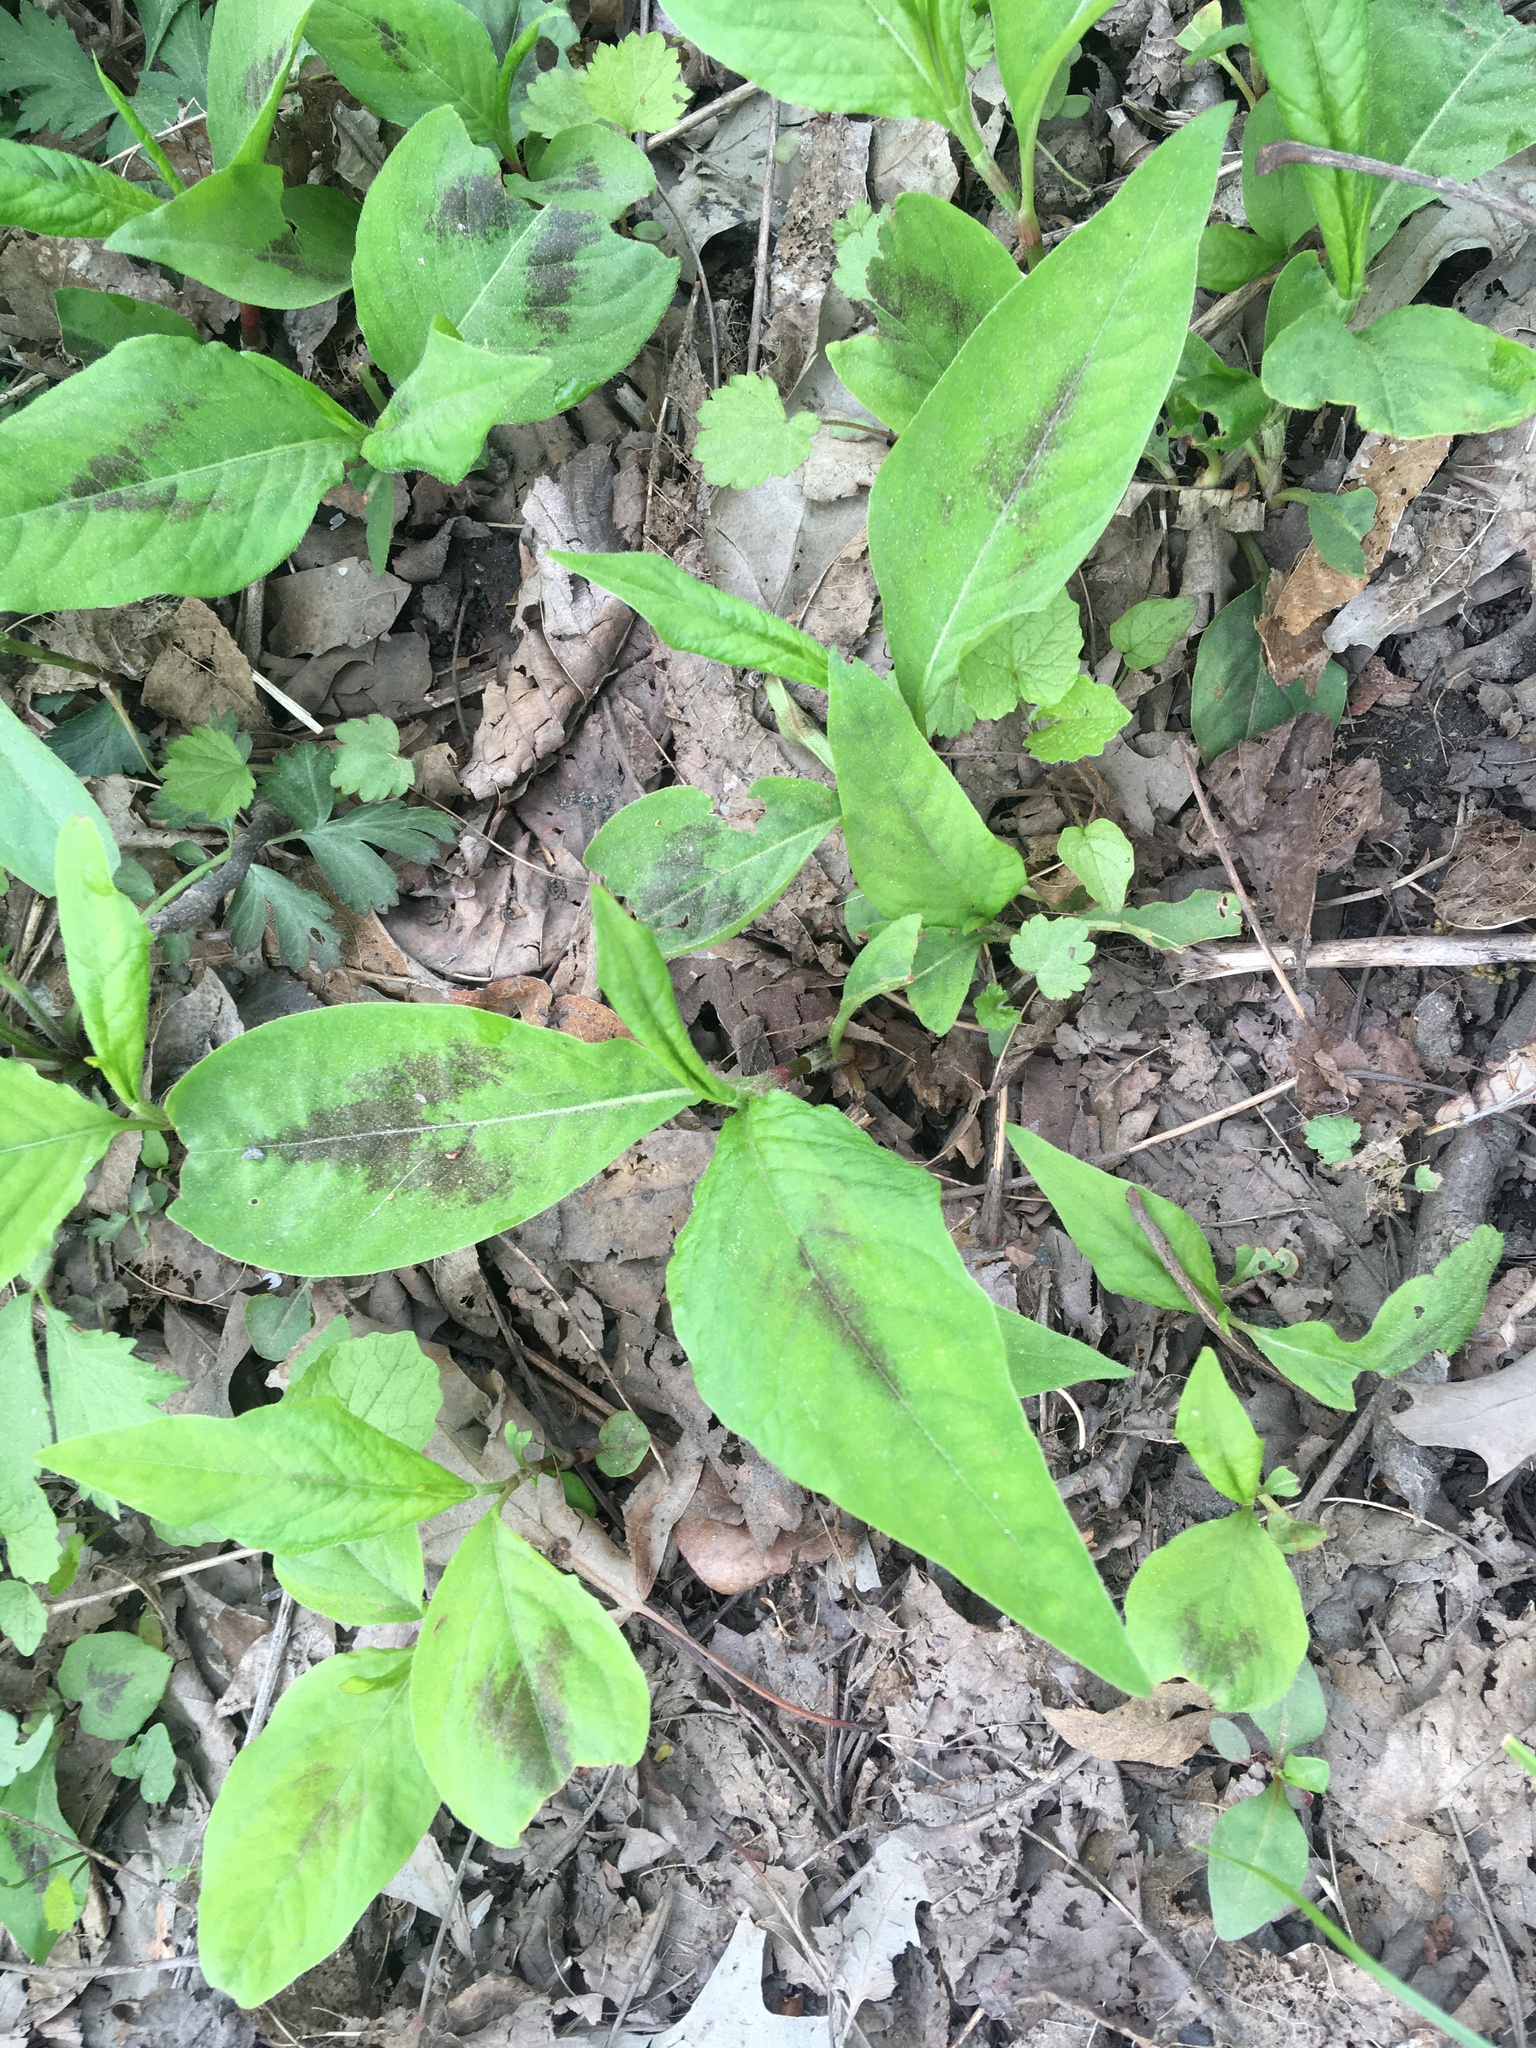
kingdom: Plantae
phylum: Tracheophyta
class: Magnoliopsida
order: Caryophyllales
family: Polygonaceae
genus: Persicaria
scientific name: Persicaria virginiana
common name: Jumpseed
